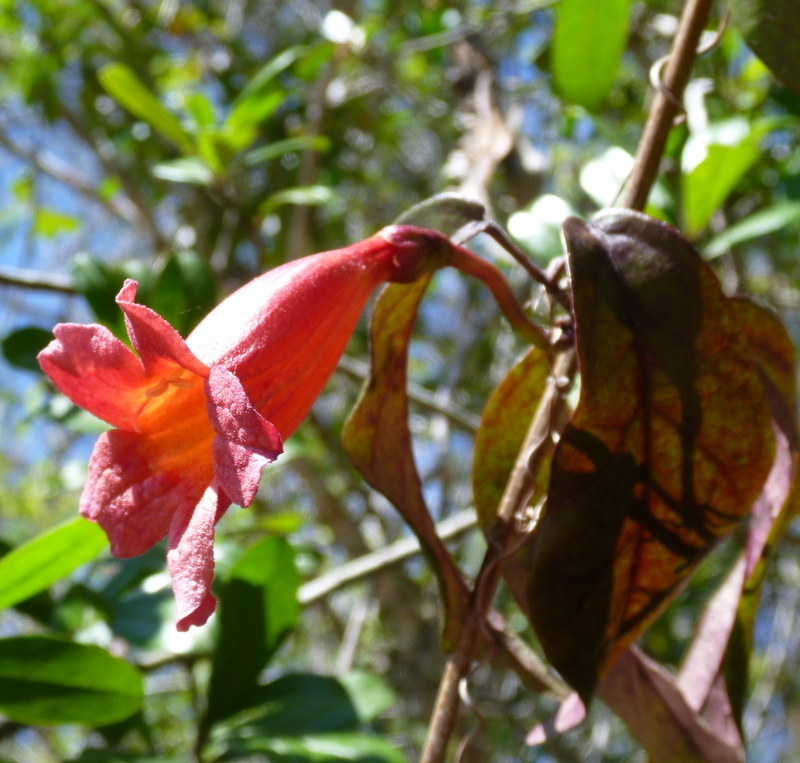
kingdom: Plantae
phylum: Tracheophyta
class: Magnoliopsida
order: Lamiales
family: Bignoniaceae
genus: Bignonia
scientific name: Bignonia capreolata
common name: Crossvine
